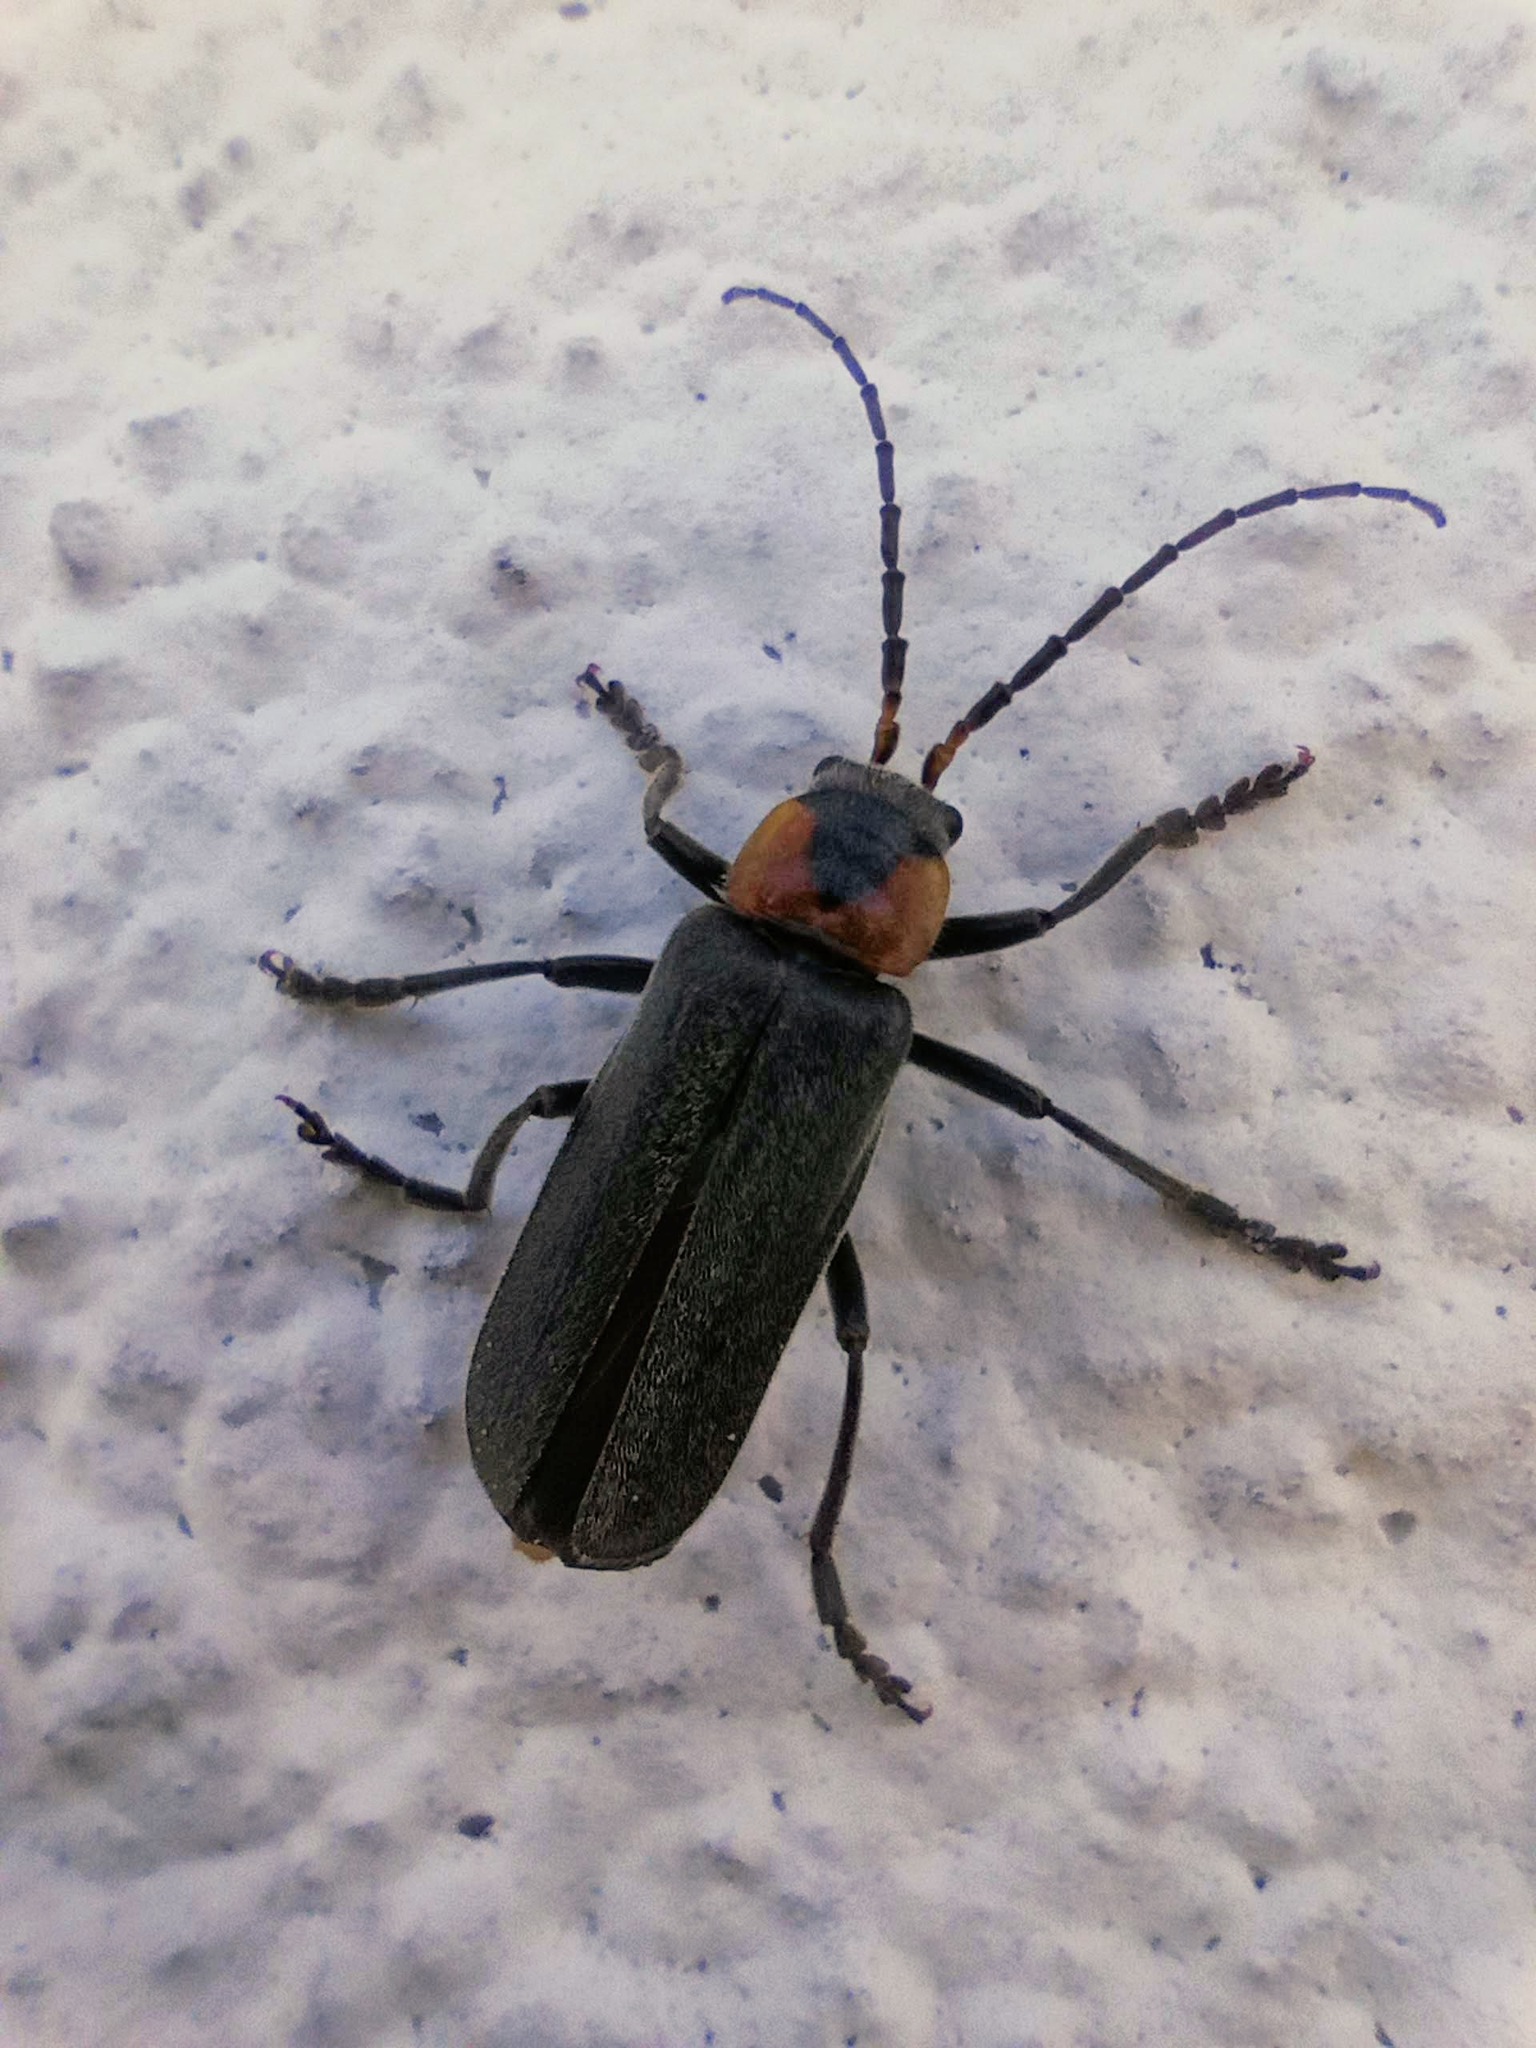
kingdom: Animalia
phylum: Arthropoda
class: Insecta
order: Coleoptera
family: Cantharidae
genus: Cantharis
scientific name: Cantharis reichei
